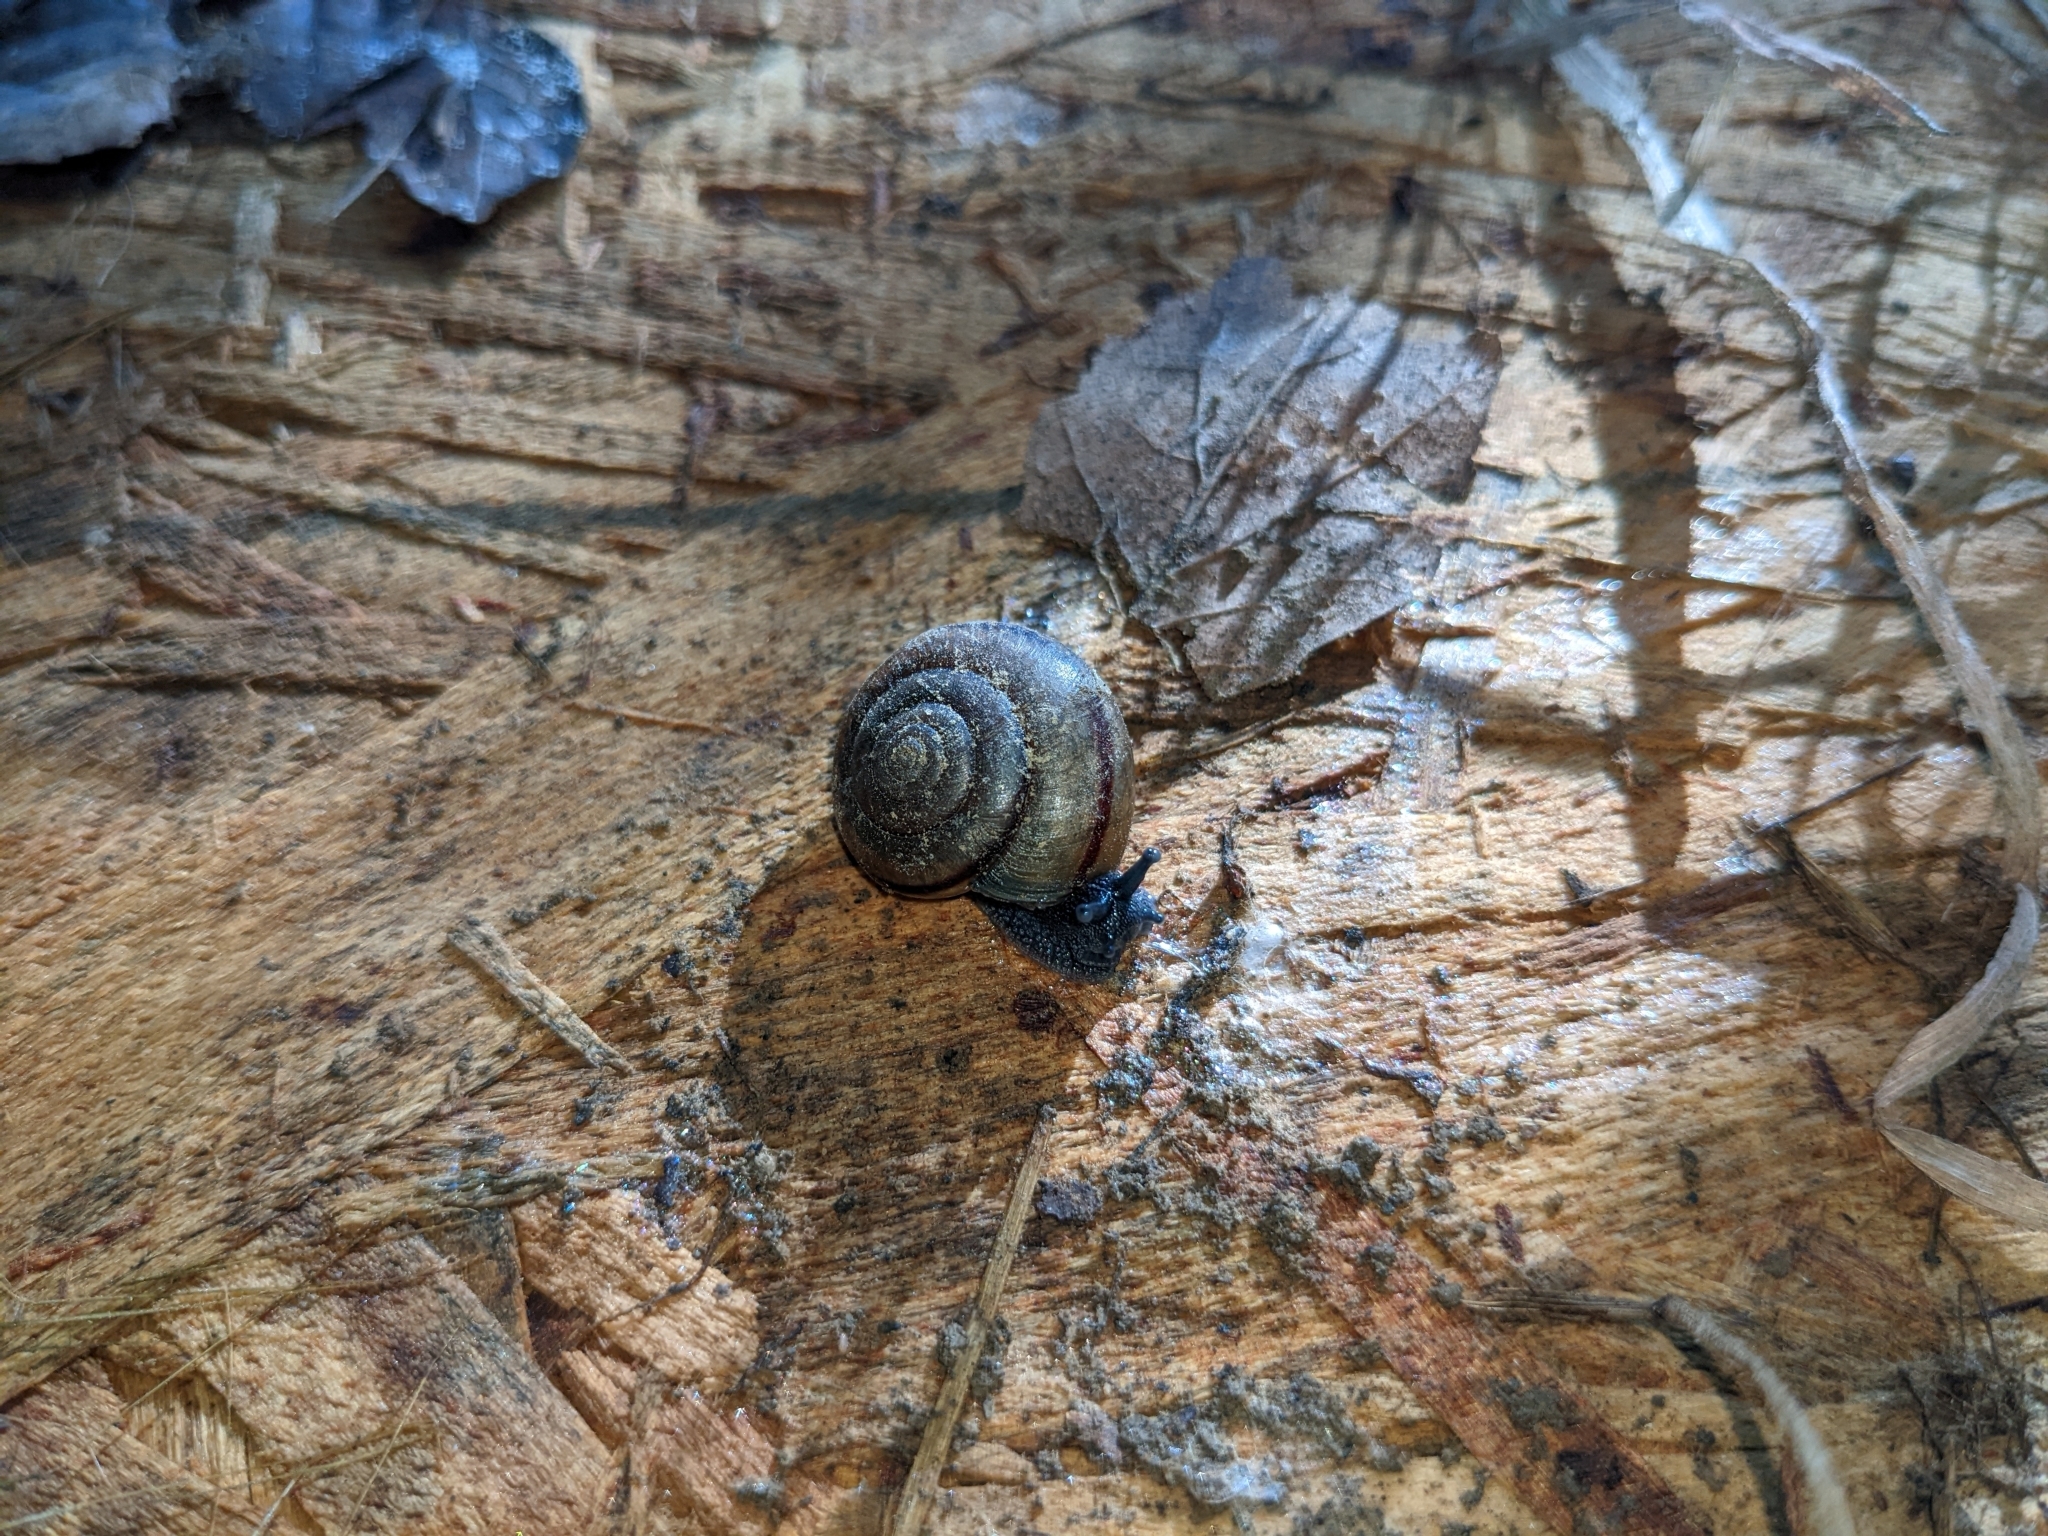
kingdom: Animalia
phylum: Mollusca
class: Gastropoda
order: Stylommatophora
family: Xanthonychidae
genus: Helminthoglypta
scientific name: Helminthoglypta traskii
